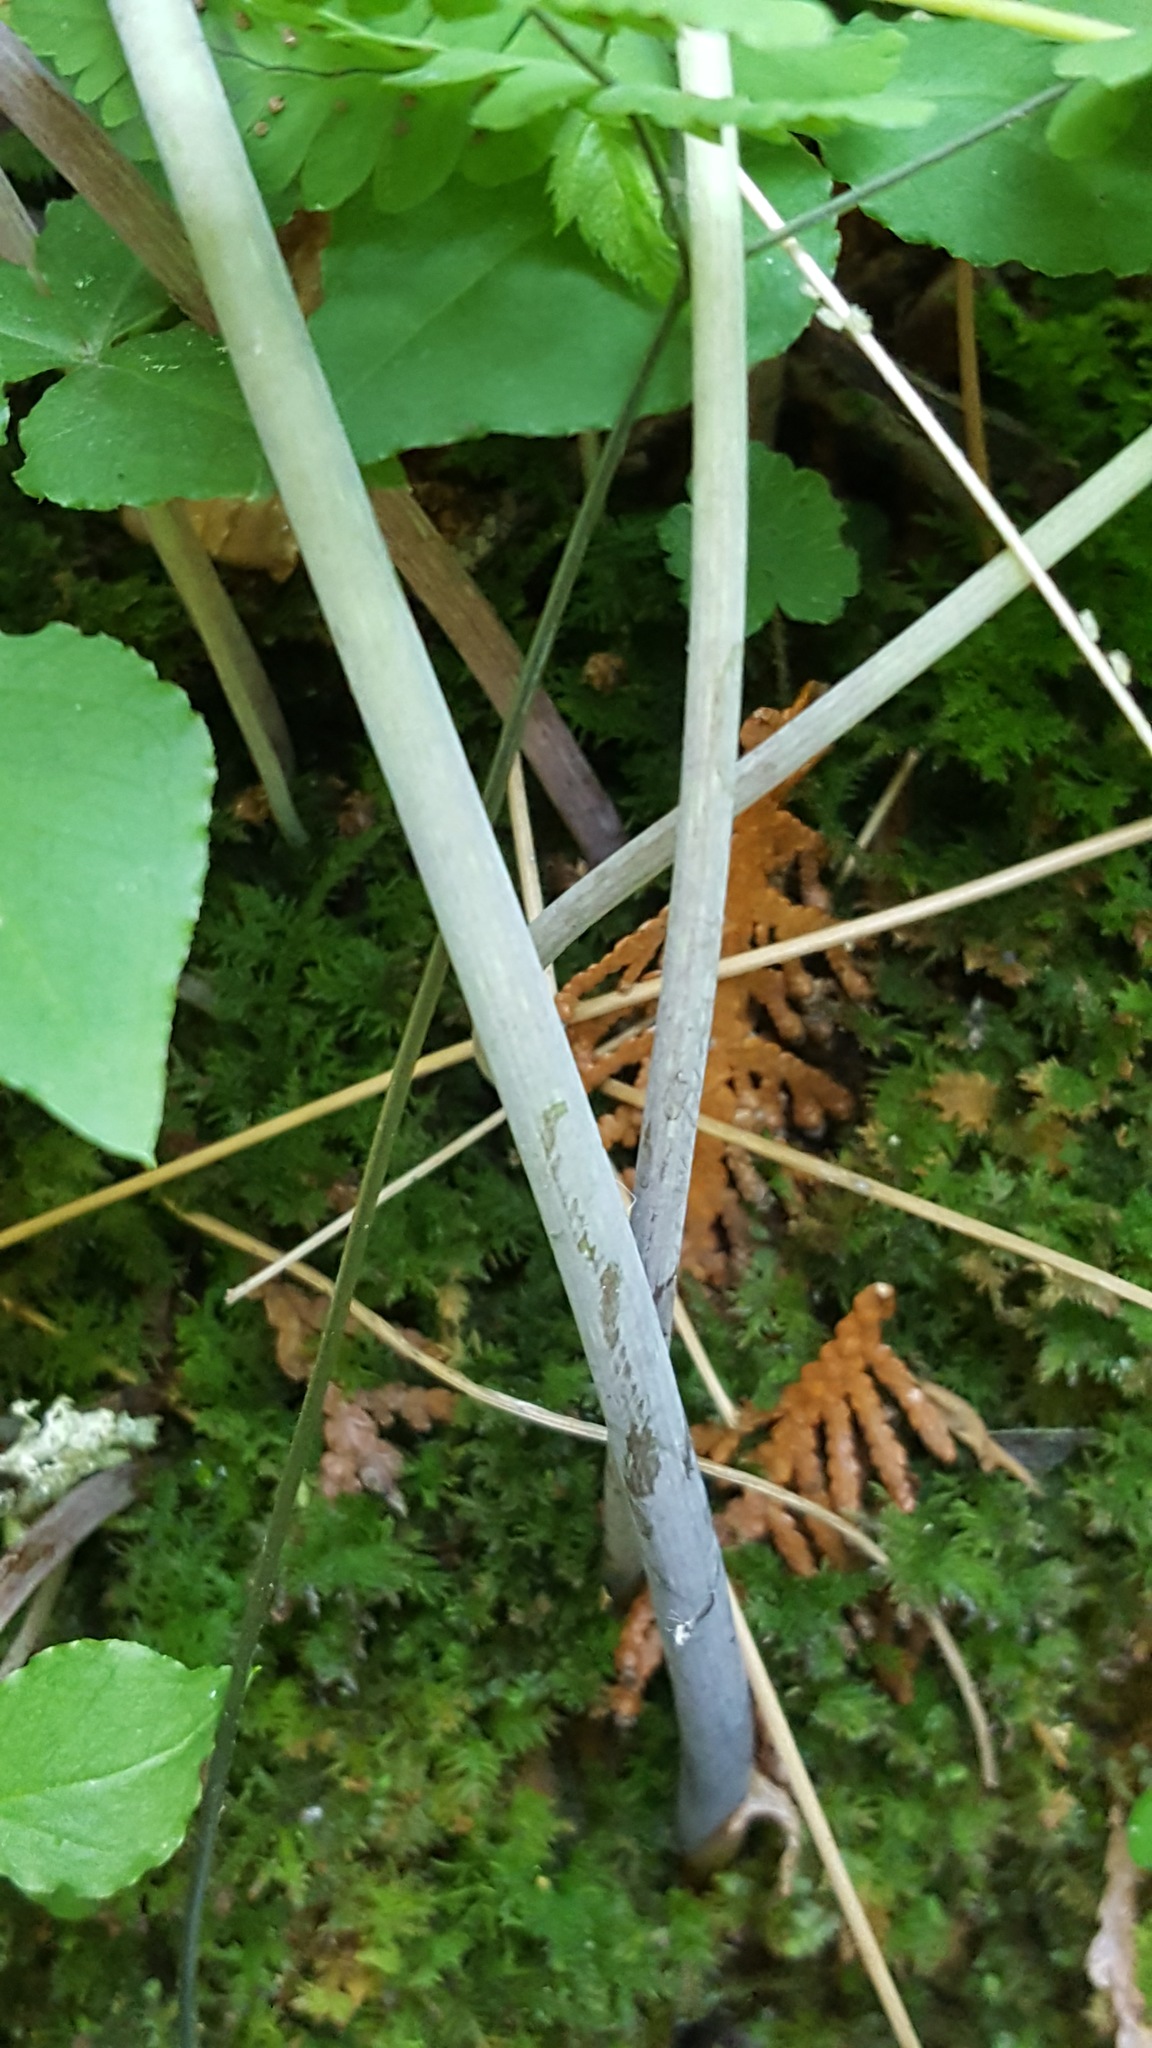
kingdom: Plantae
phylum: Tracheophyta
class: Liliopsida
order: Alismatales
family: Araceae
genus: Arisaema
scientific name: Arisaema triphyllum
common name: Jack-in-the-pulpit
